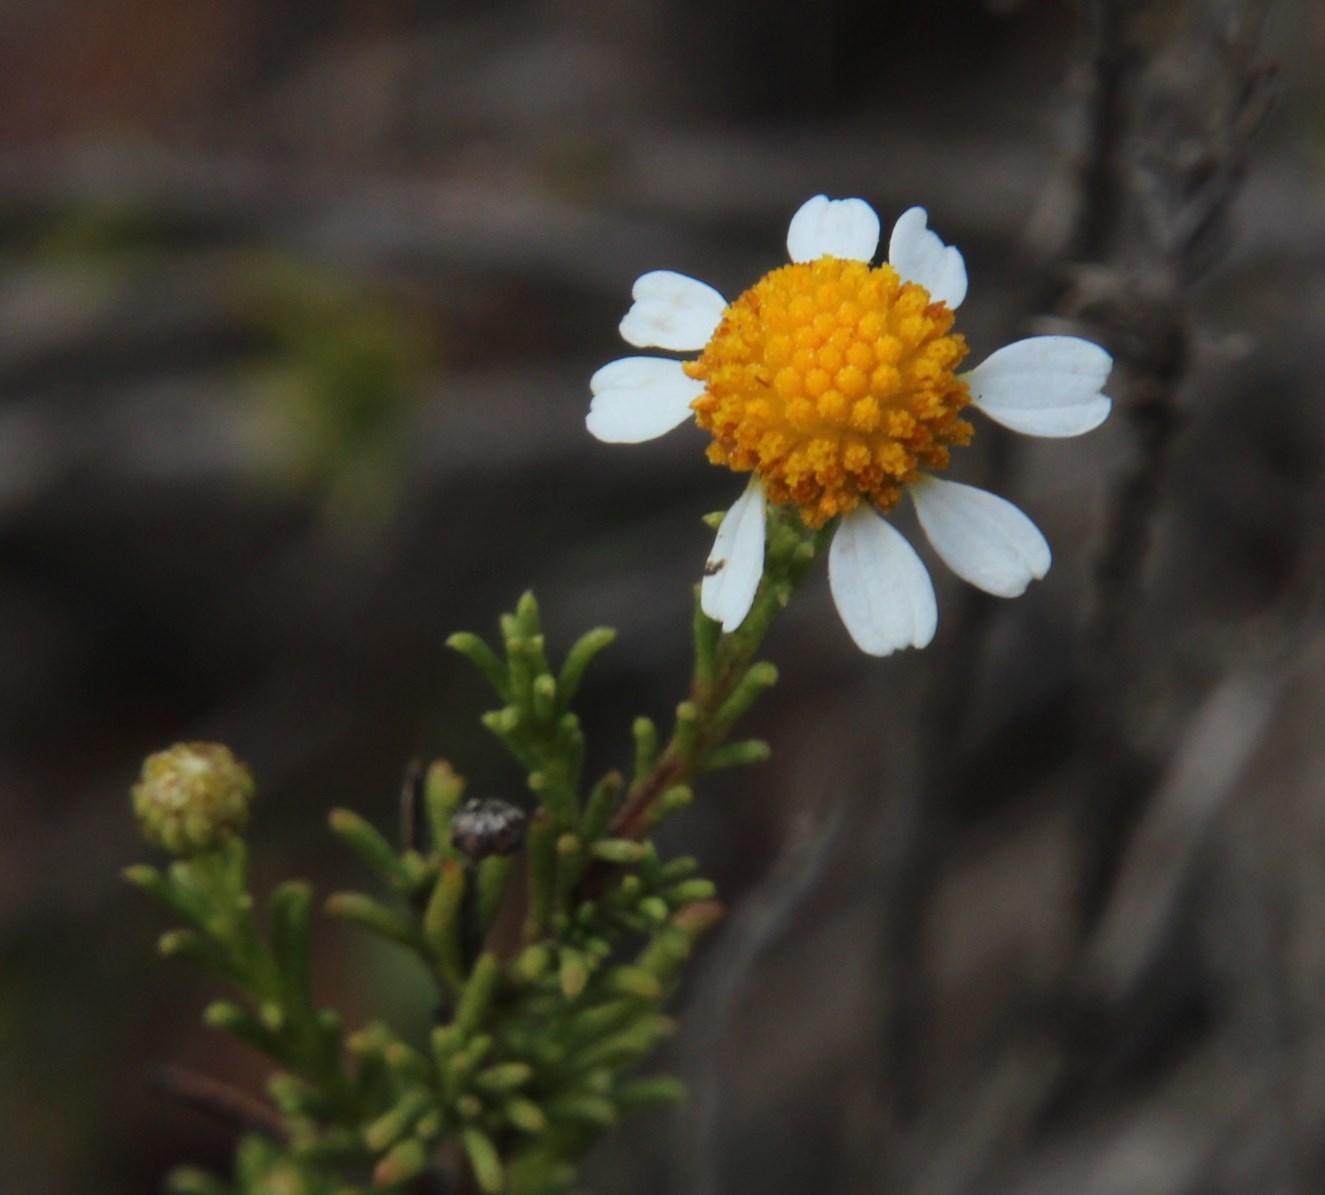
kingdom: Plantae
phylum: Tracheophyta
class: Magnoliopsida
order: Asterales
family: Asteraceae
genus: Cymbopappus
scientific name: Cymbopappus adenosolen
